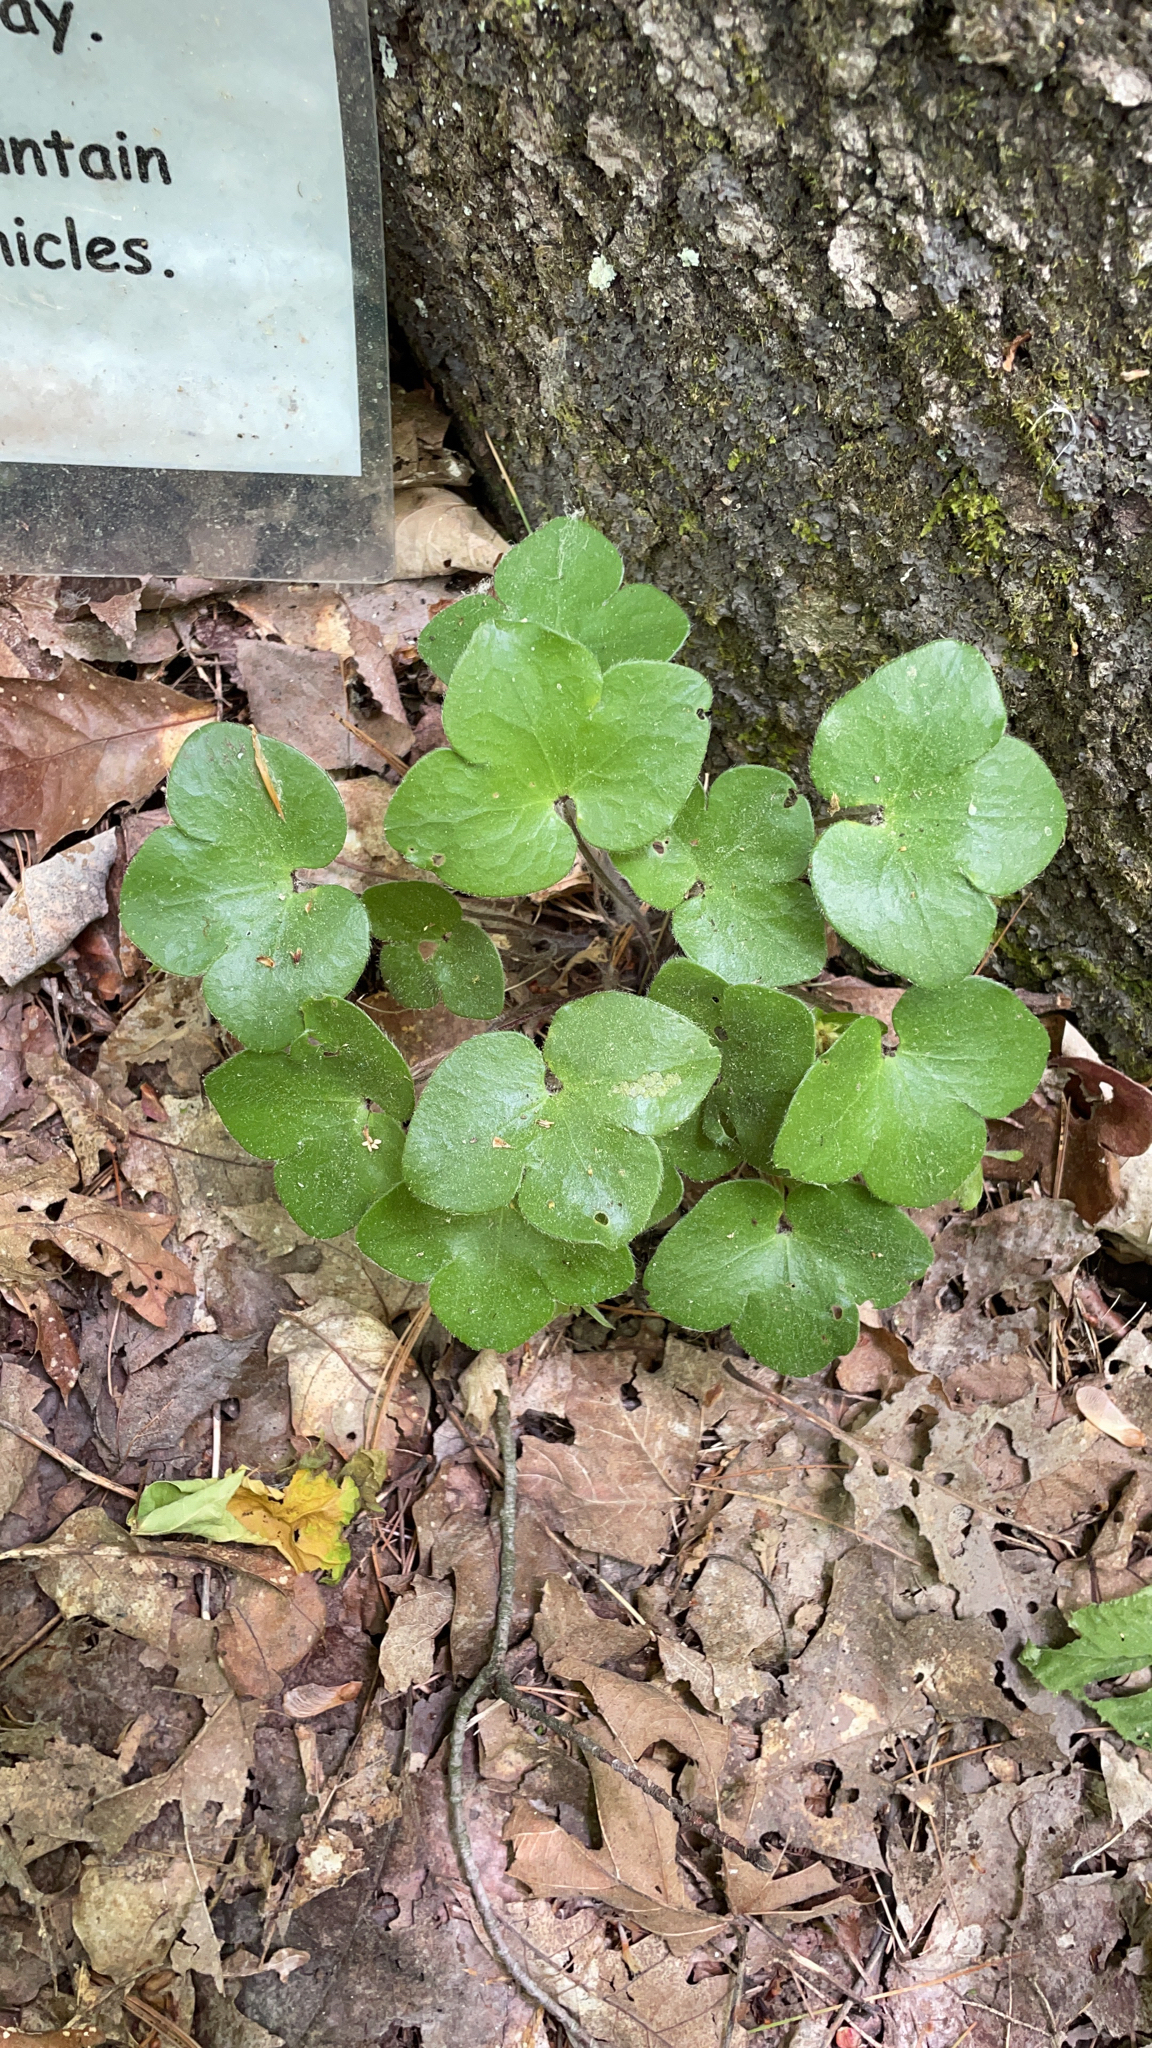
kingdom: Plantae
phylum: Tracheophyta
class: Magnoliopsida
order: Ranunculales
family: Ranunculaceae
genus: Hepatica
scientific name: Hepatica americana
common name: American hepatica
